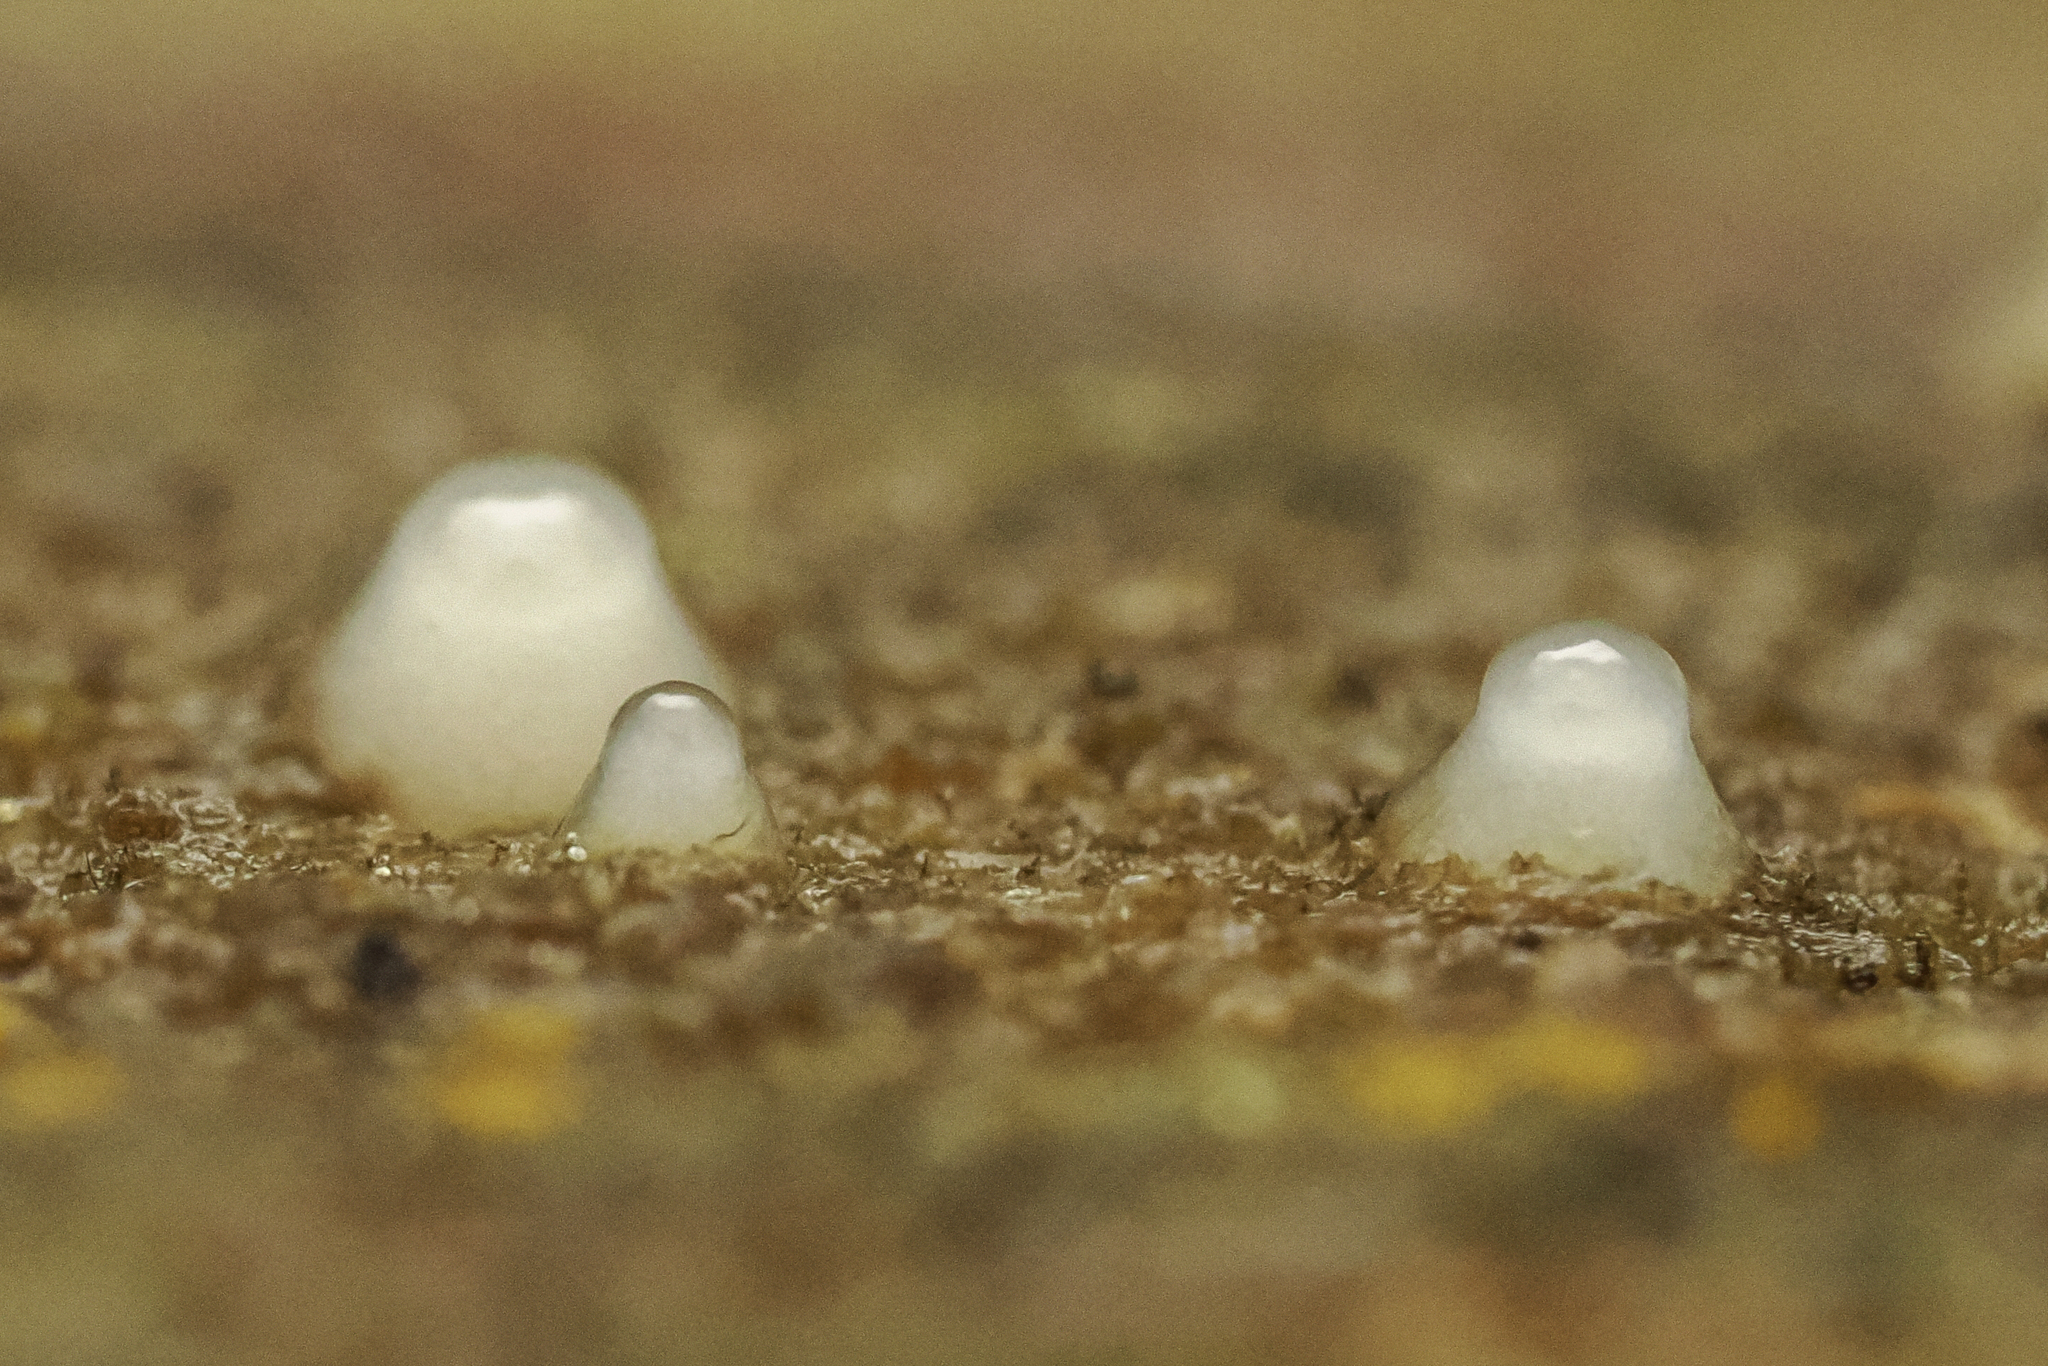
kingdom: Fungi
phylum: Basidiomycota
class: Atractiellomycetes
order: Atractiellales
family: Phleogenaceae
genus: Helicogloea
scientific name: Helicogloea compressa
